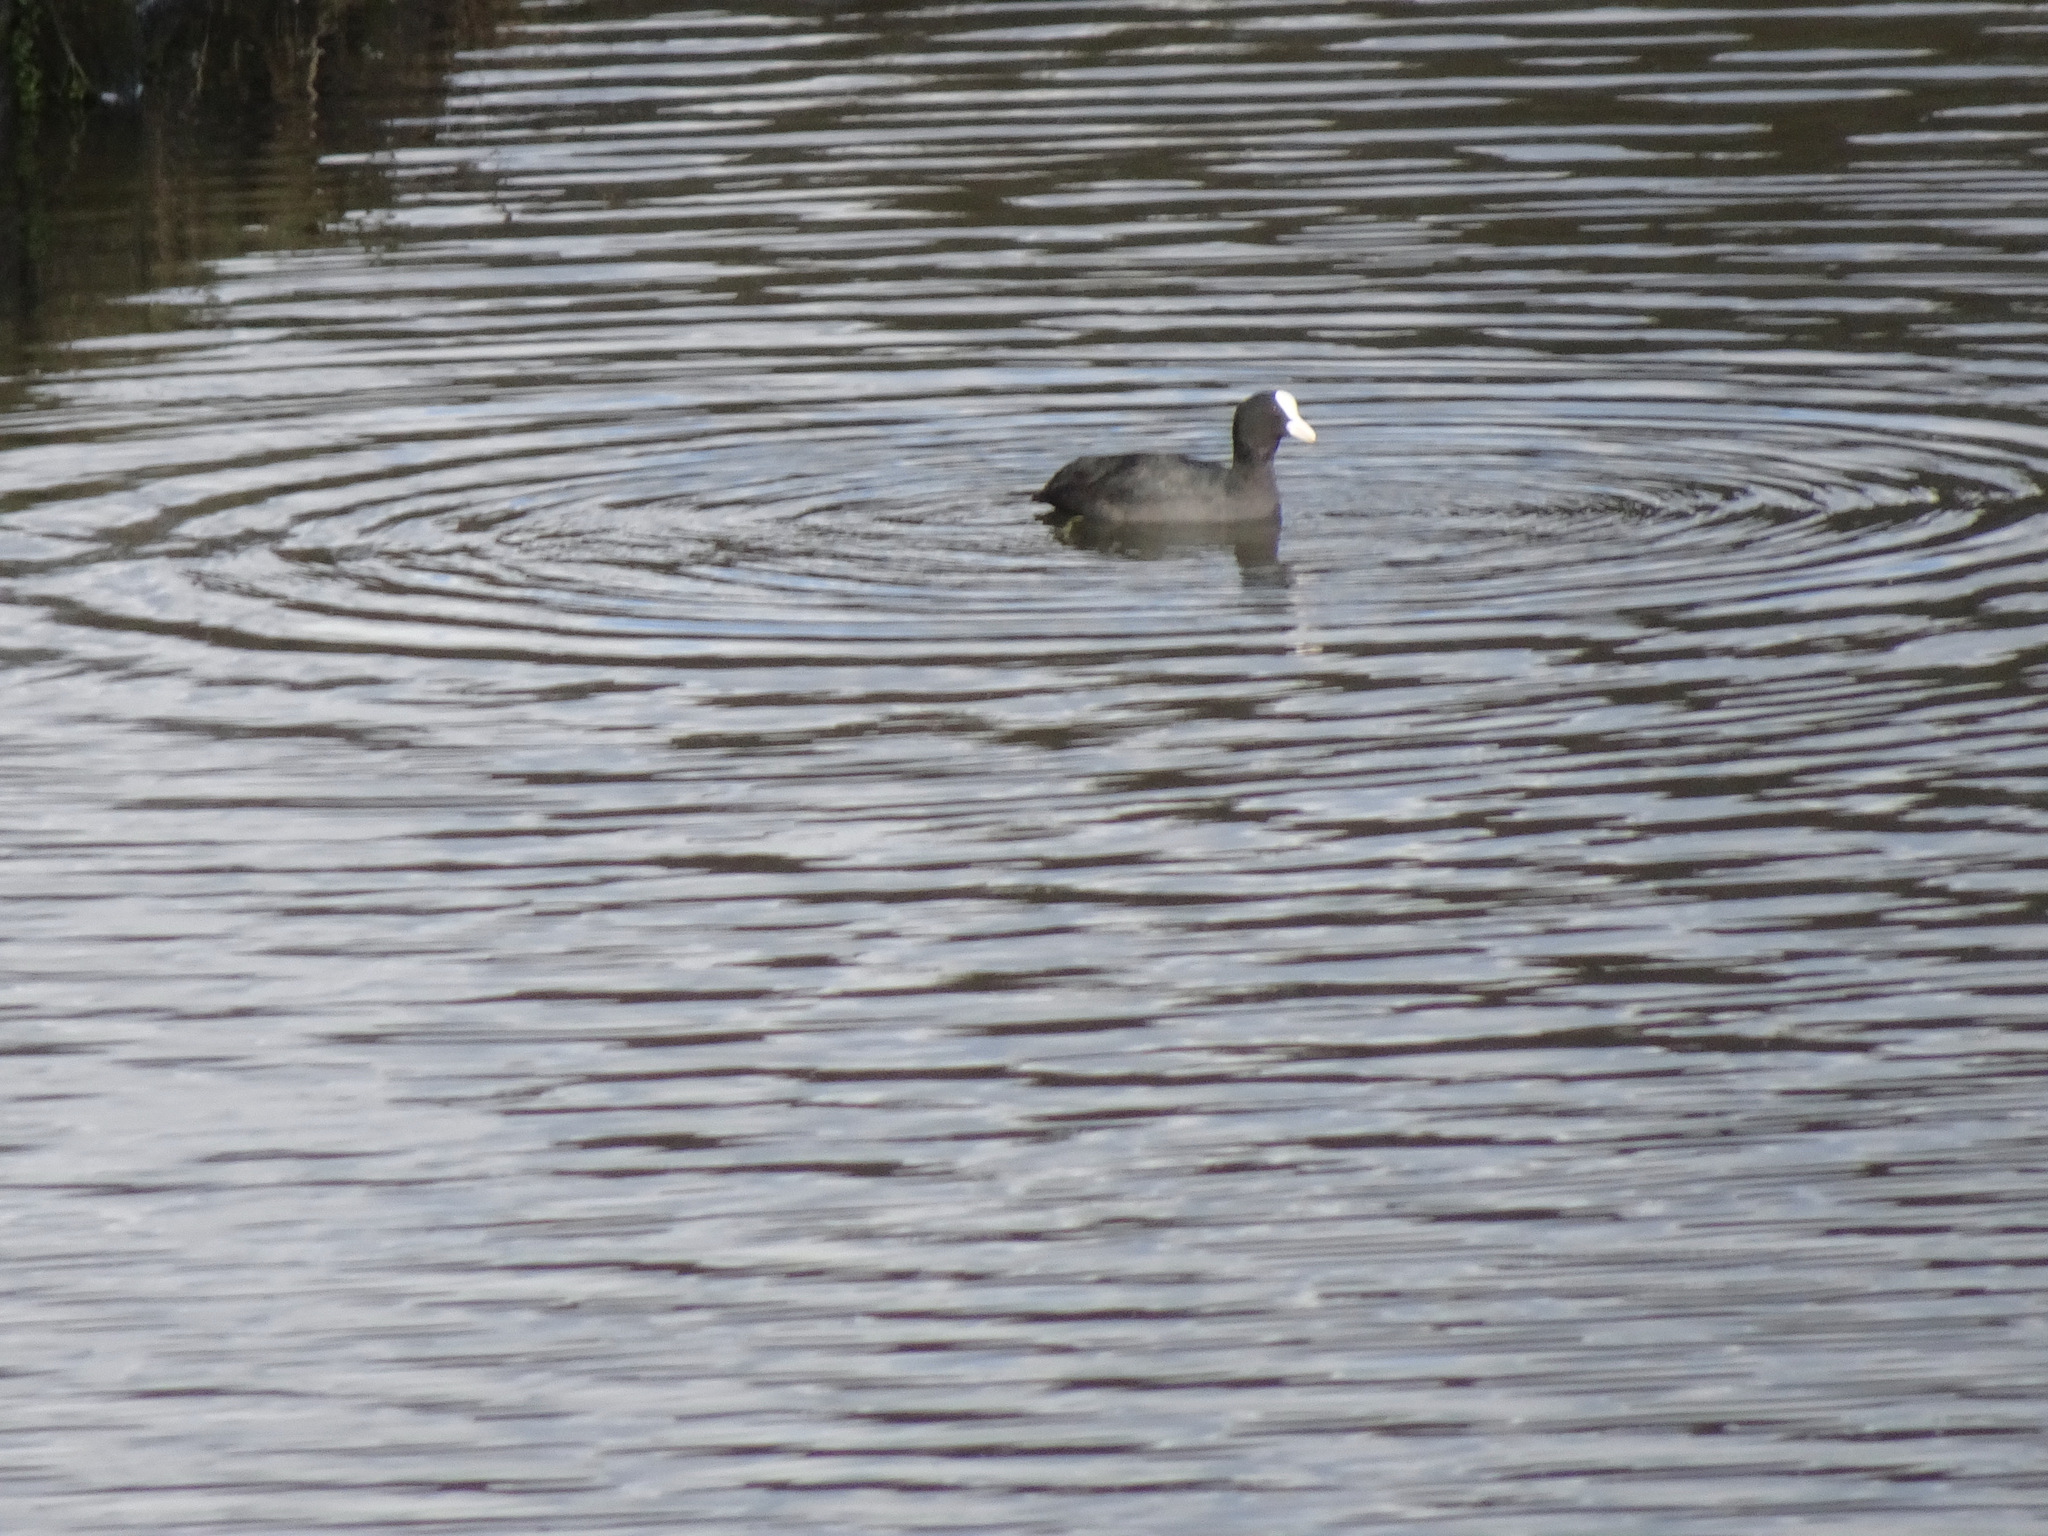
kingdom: Animalia
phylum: Chordata
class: Aves
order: Gruiformes
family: Rallidae
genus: Fulica
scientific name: Fulica atra
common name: Eurasian coot
